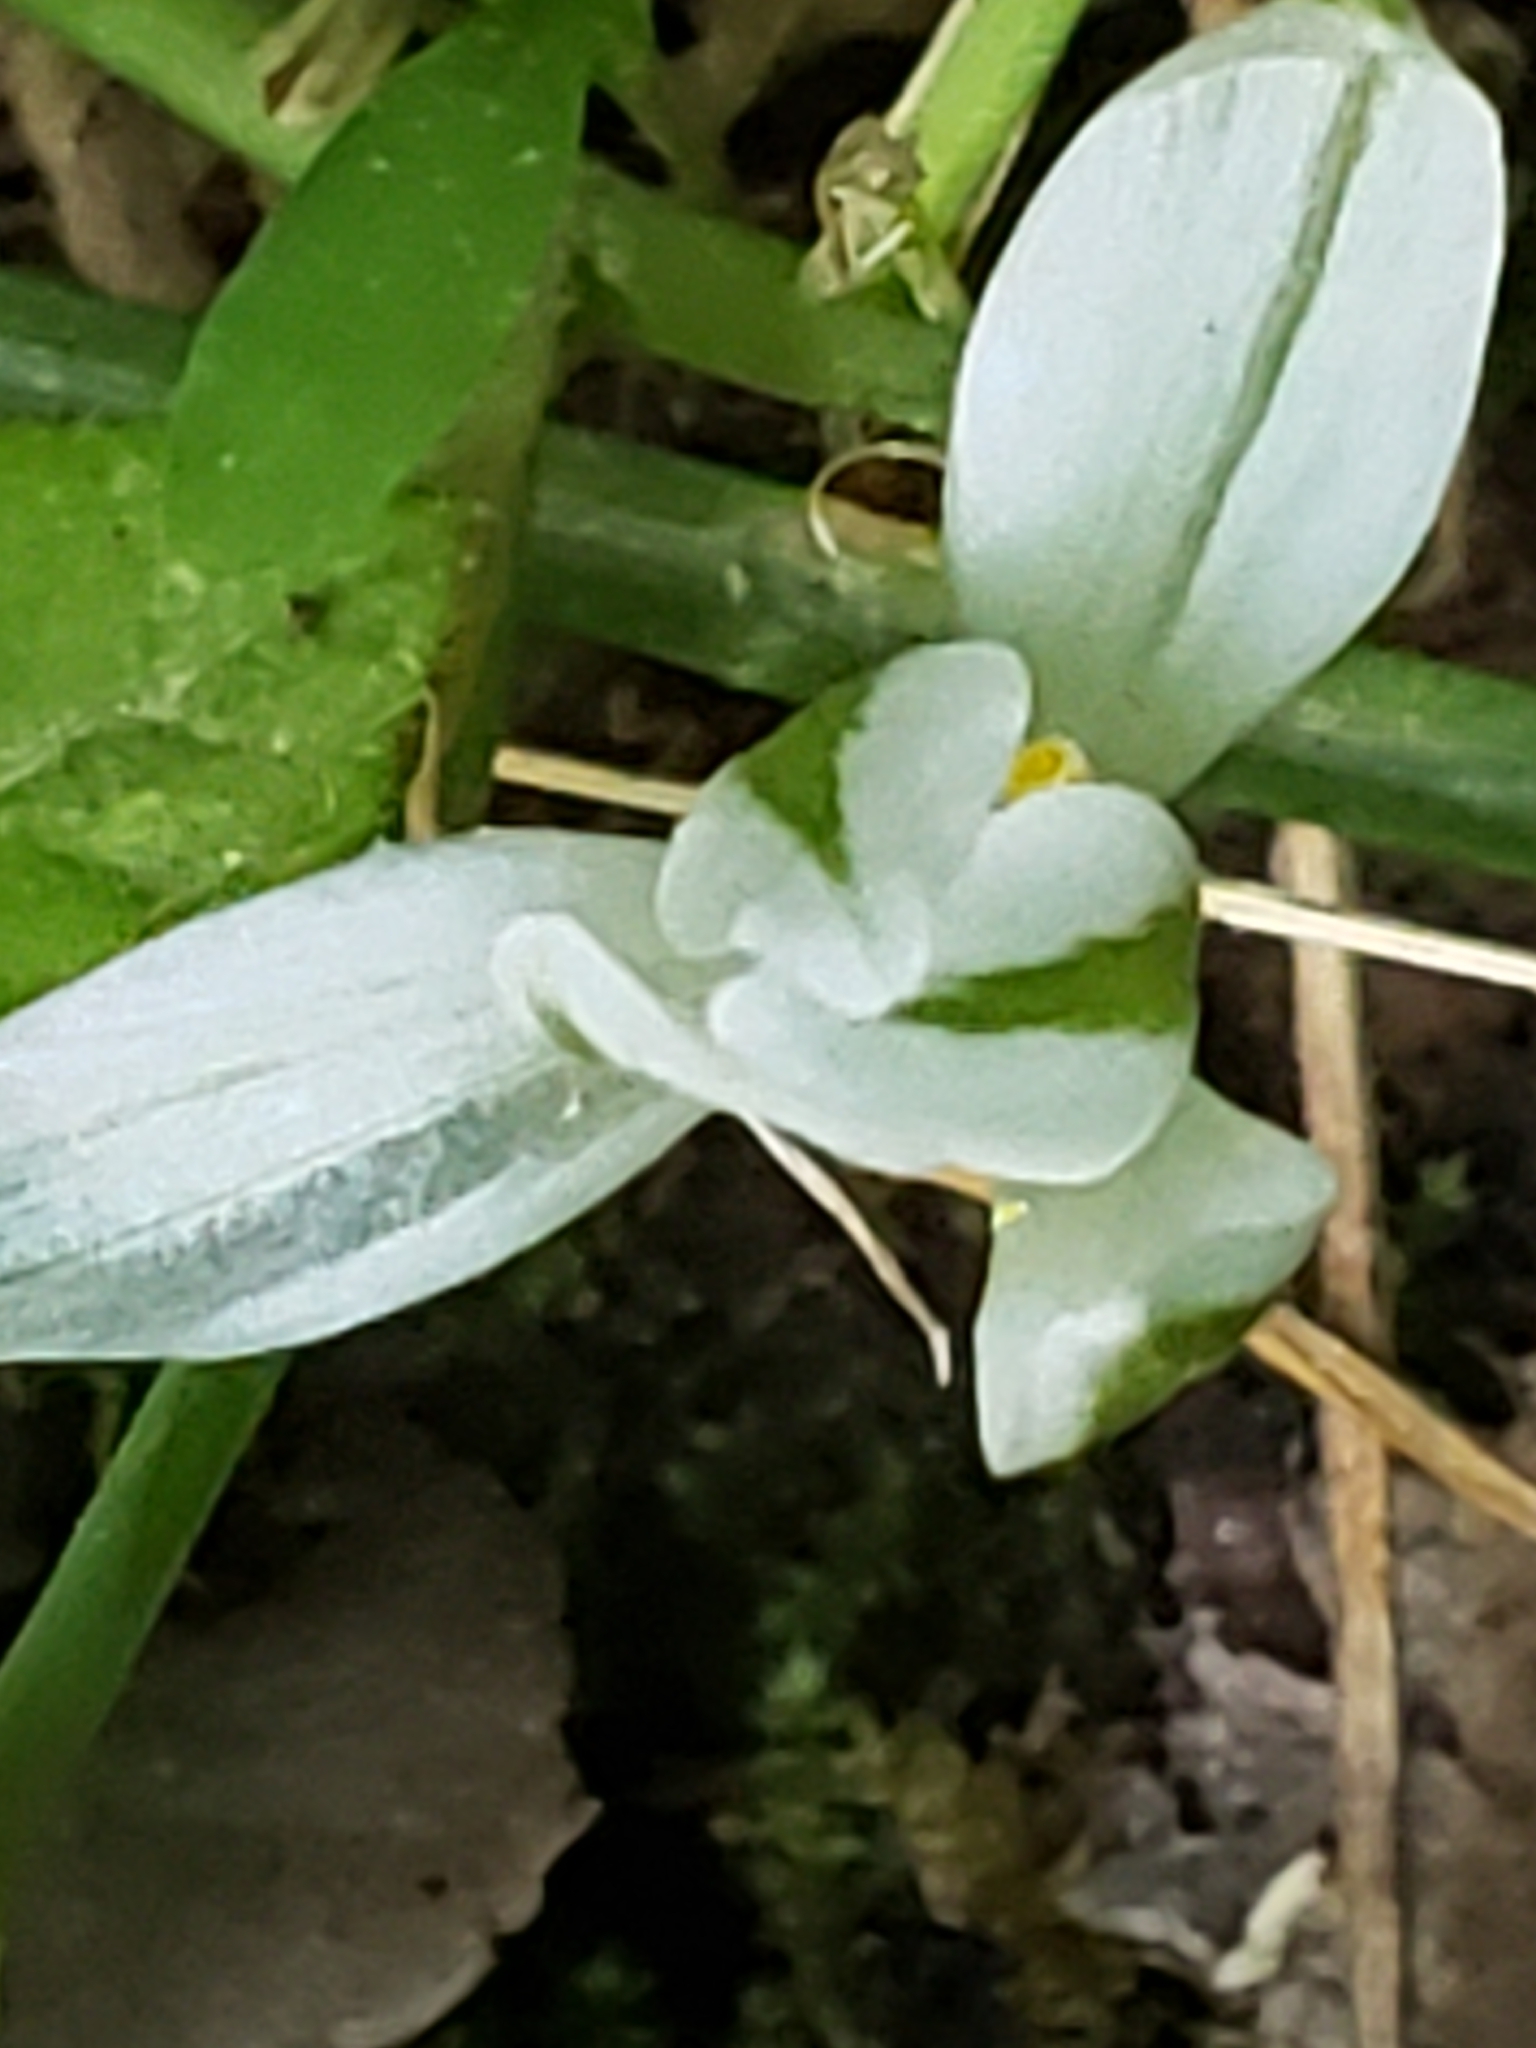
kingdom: Plantae
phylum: Tracheophyta
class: Liliopsida
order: Asparagales
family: Asparagaceae
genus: Ornithogalum
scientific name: Ornithogalum umbellatum
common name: Garden star-of-bethlehem
